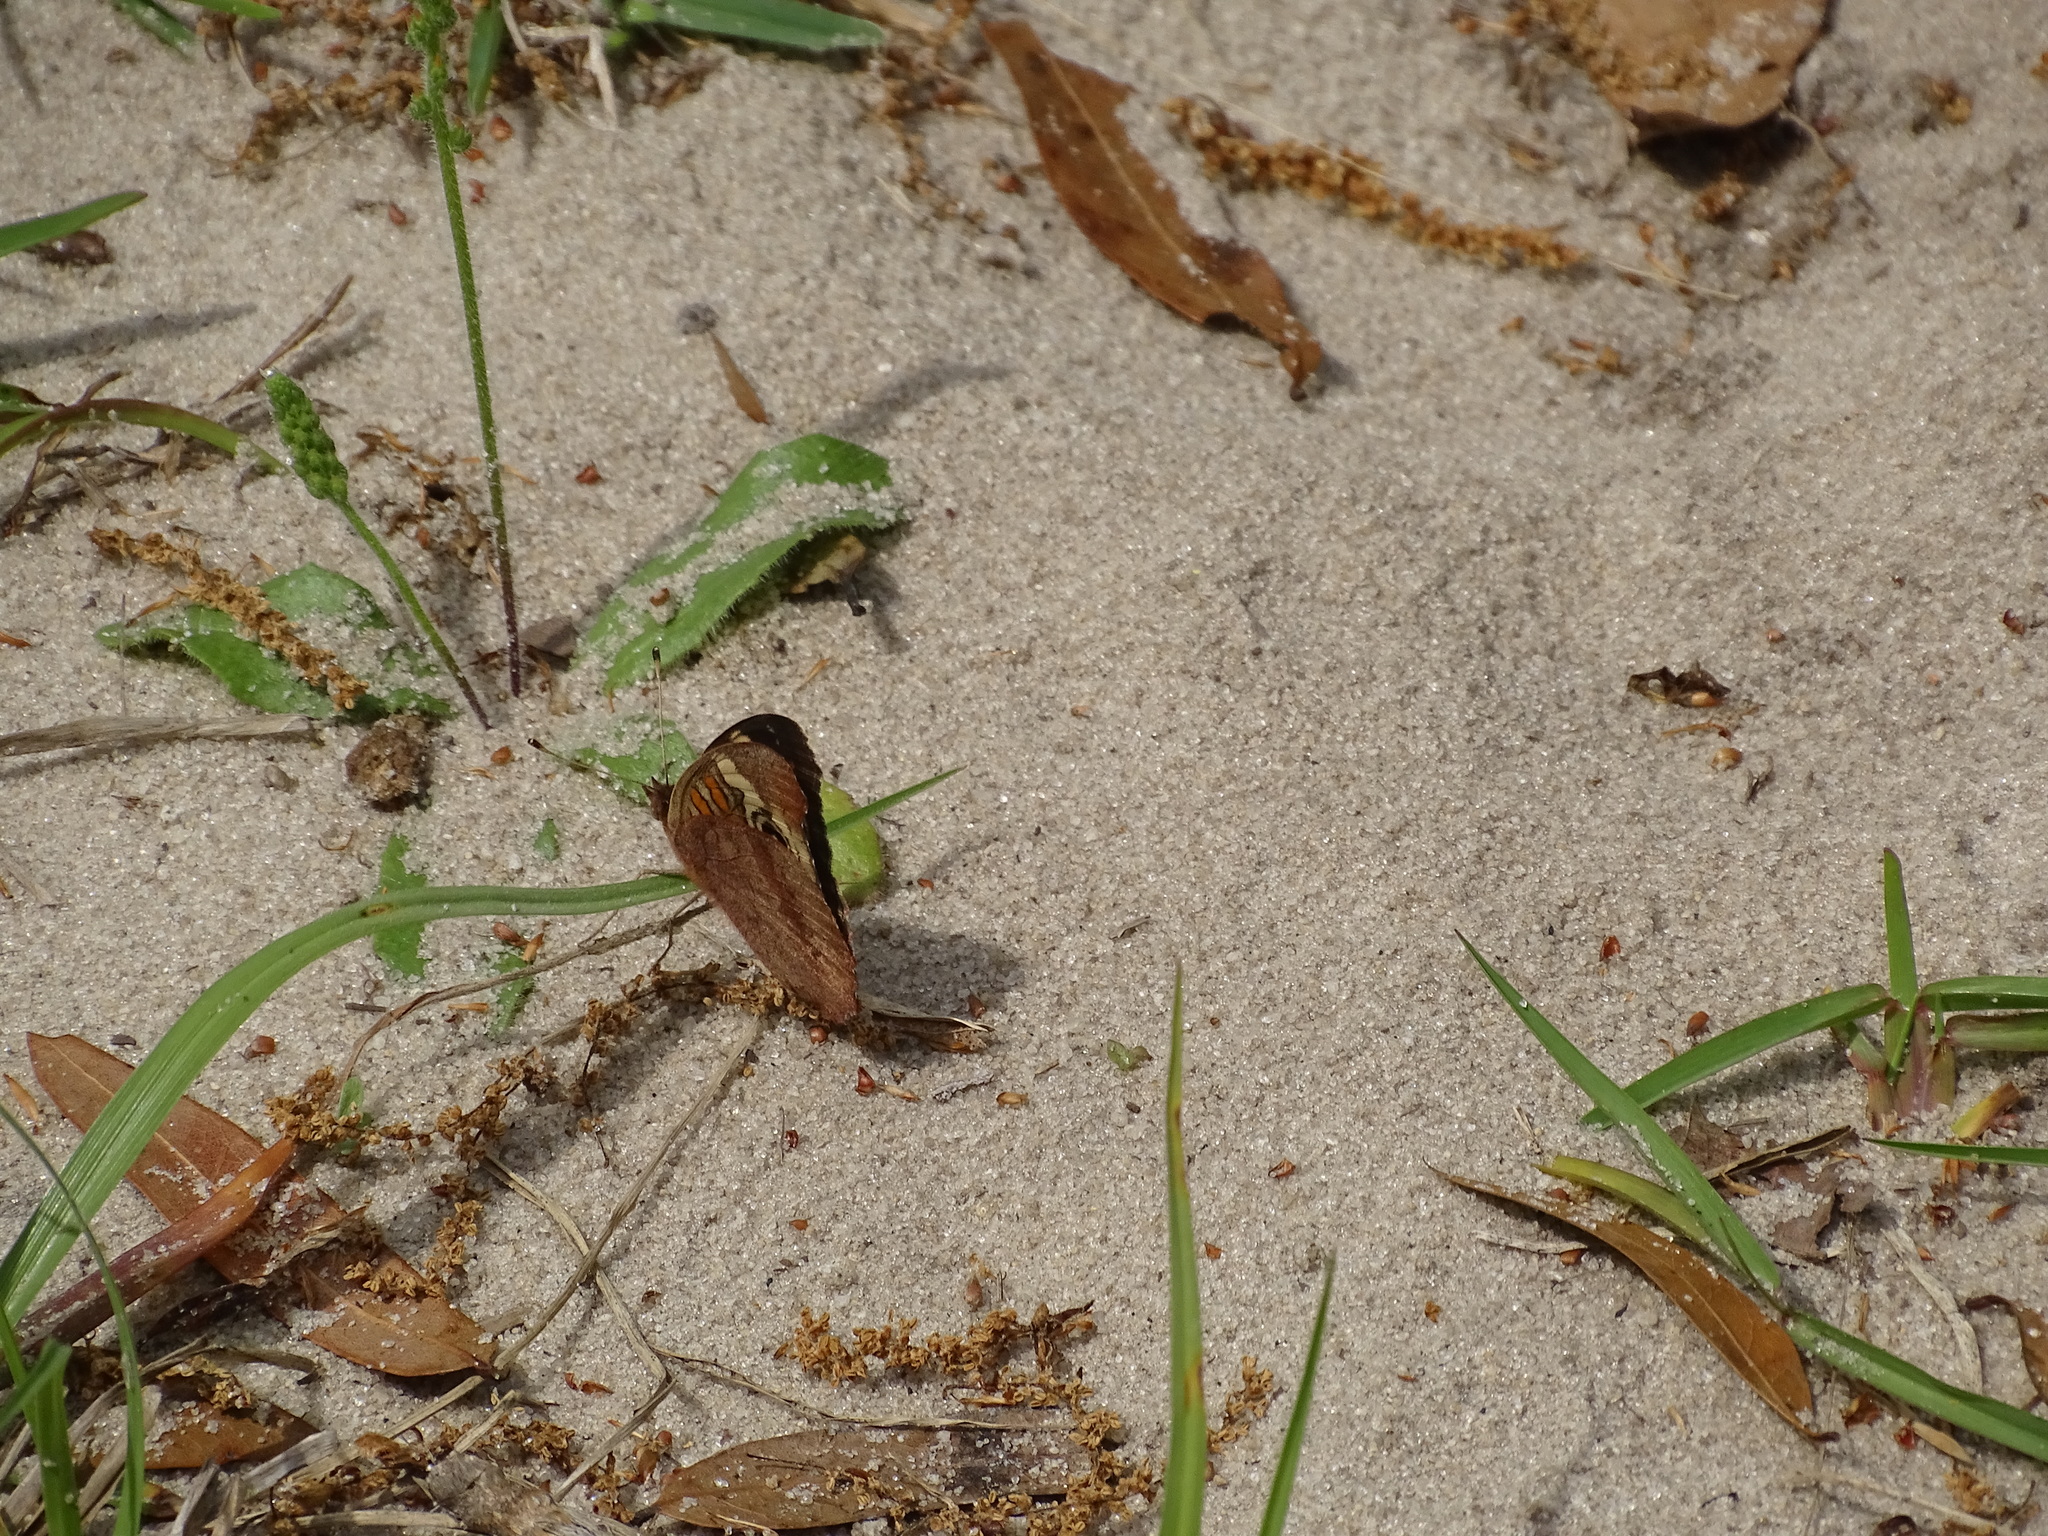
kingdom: Animalia
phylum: Arthropoda
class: Insecta
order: Lepidoptera
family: Nymphalidae
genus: Junonia
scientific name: Junonia coenia
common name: Common buckeye
